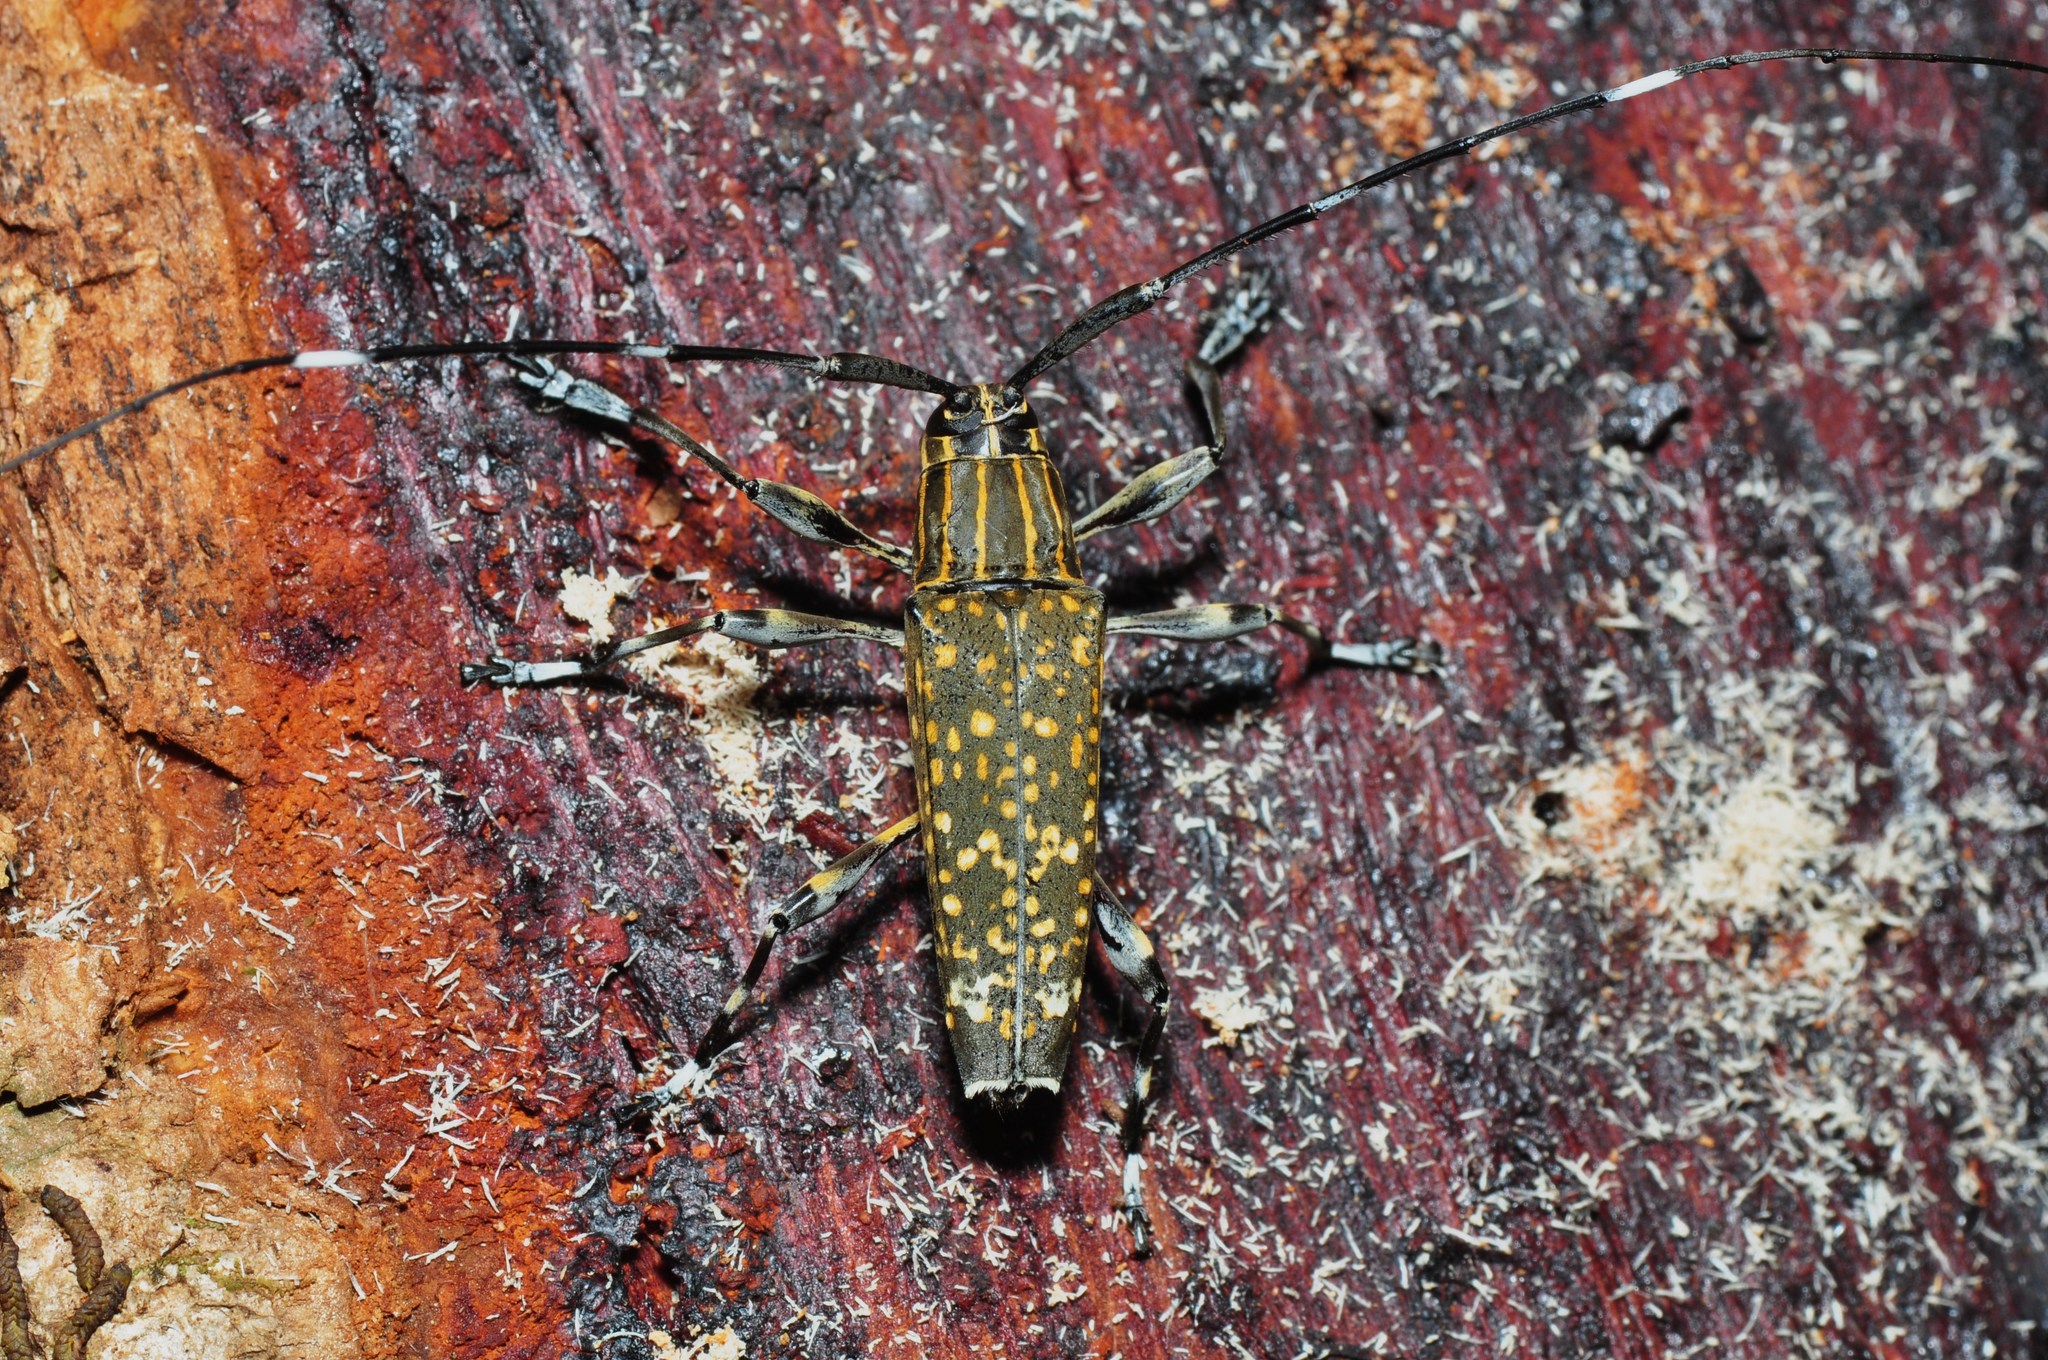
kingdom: Animalia
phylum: Arthropoda
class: Insecta
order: Coleoptera
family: Cerambycidae
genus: Colobothea
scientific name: Colobothea bitincta
